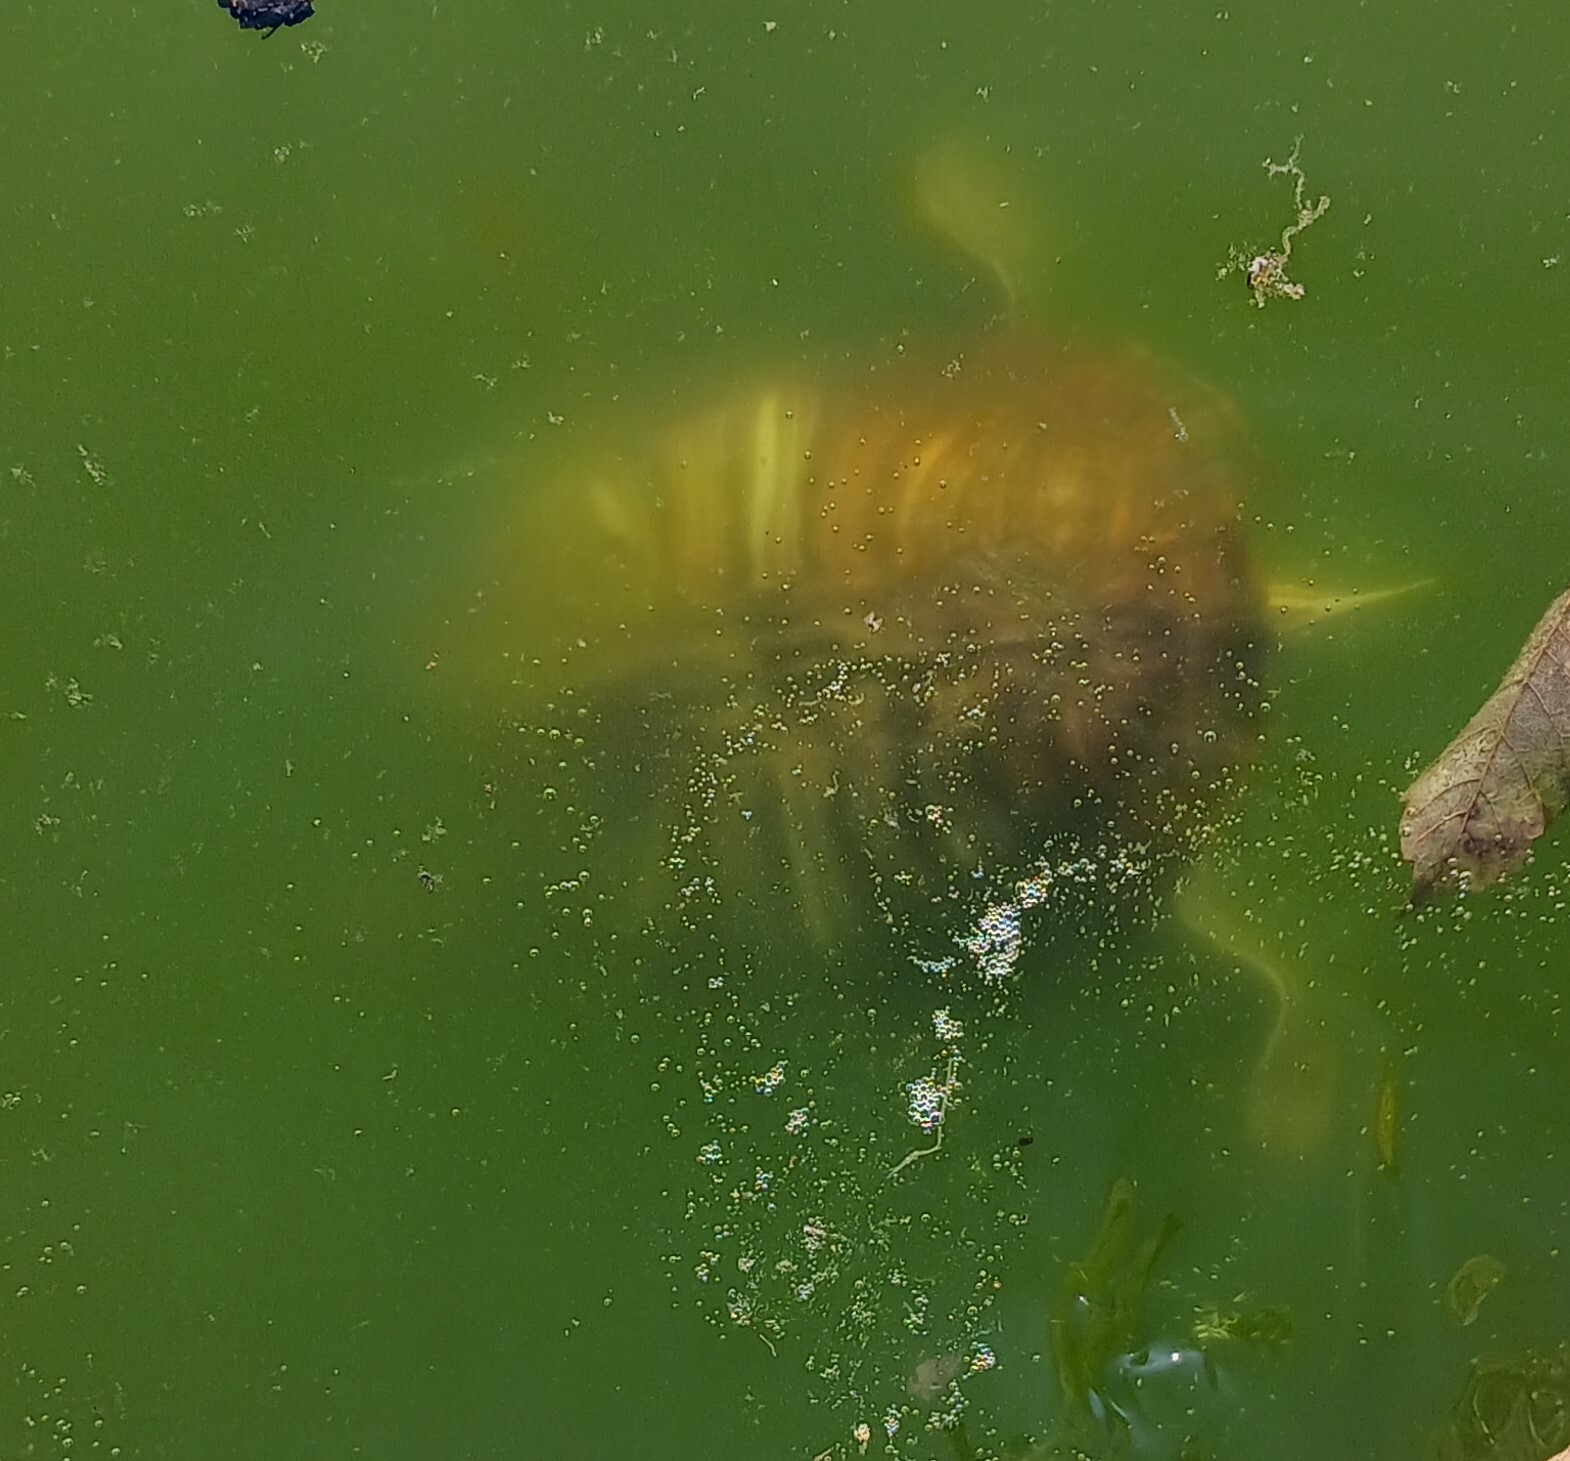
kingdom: Animalia
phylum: Chordata
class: Testudines
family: Emydidae
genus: Trachemys
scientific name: Trachemys scripta
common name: Slider
